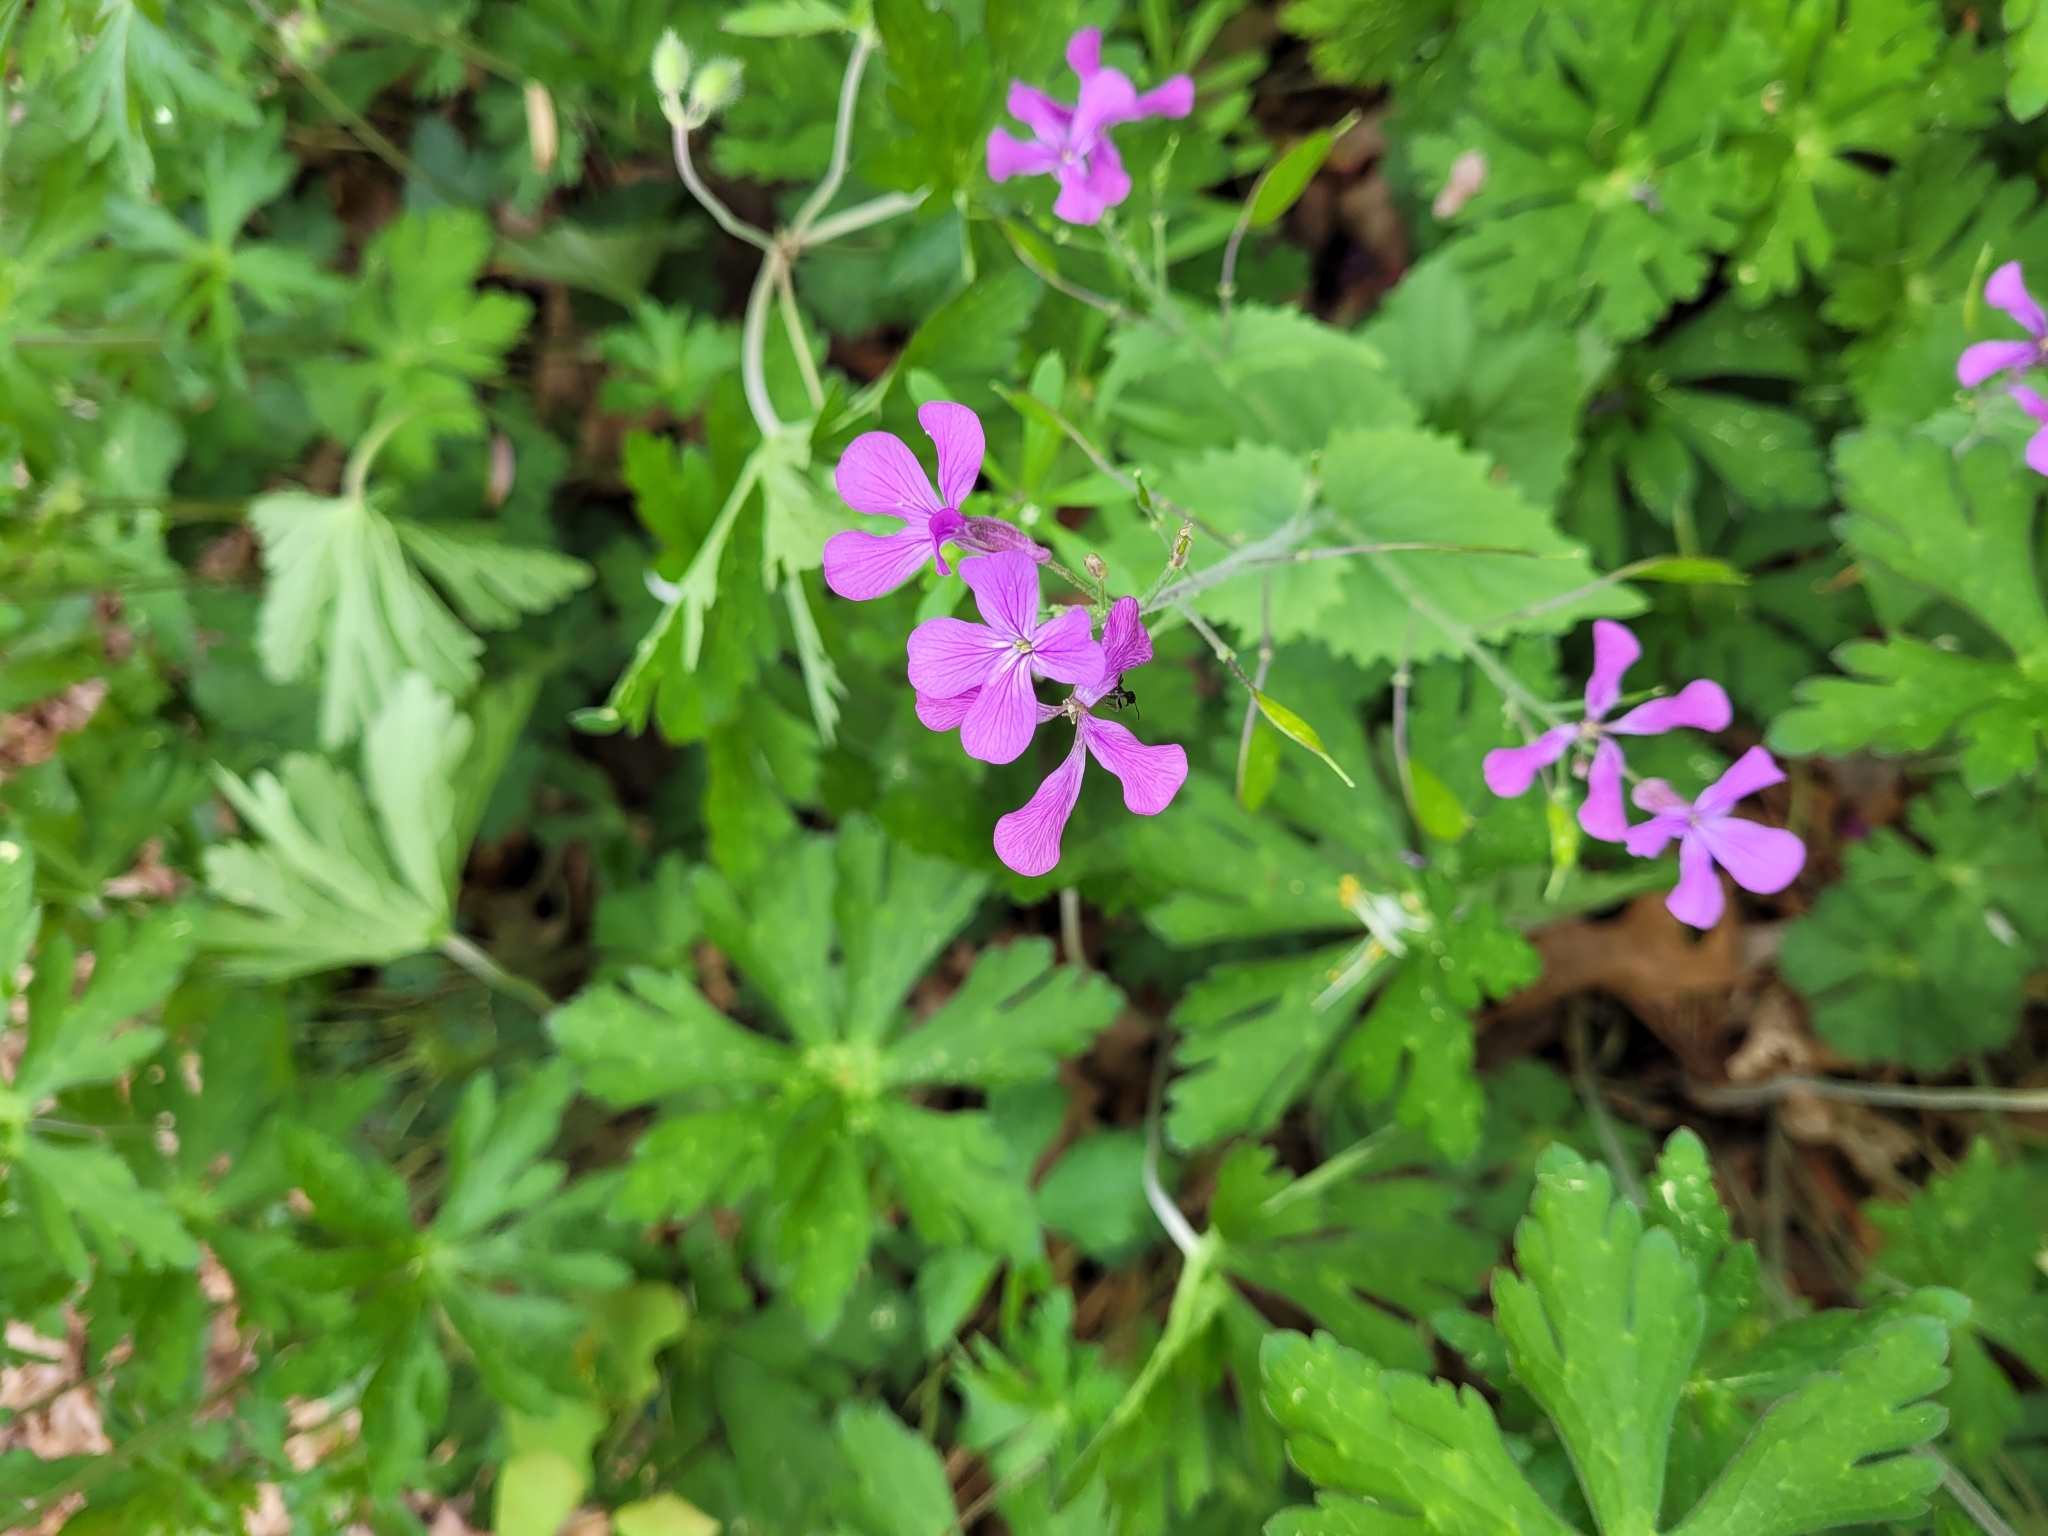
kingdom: Plantae
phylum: Tracheophyta
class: Magnoliopsida
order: Brassicales
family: Brassicaceae
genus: Lunaria
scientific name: Lunaria annua
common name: Honesty
